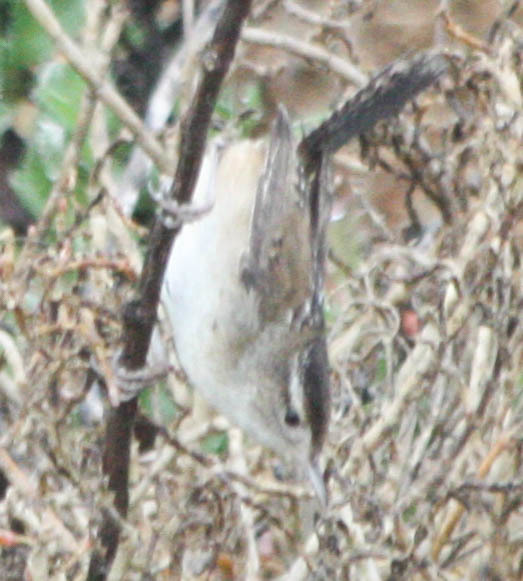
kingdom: Animalia
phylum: Chordata
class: Aves
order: Passeriformes
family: Troglodytidae
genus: Cistothorus
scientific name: Cistothorus palustris
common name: Marsh wren
